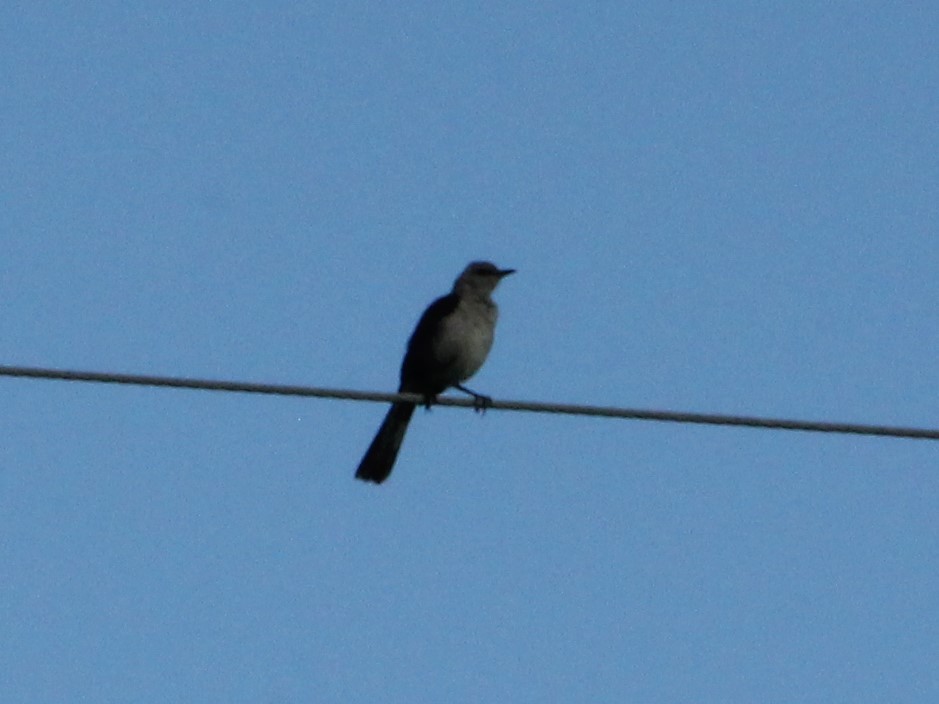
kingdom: Animalia
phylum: Chordata
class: Aves
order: Passeriformes
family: Mimidae
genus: Mimus
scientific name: Mimus polyglottos
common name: Northern mockingbird
